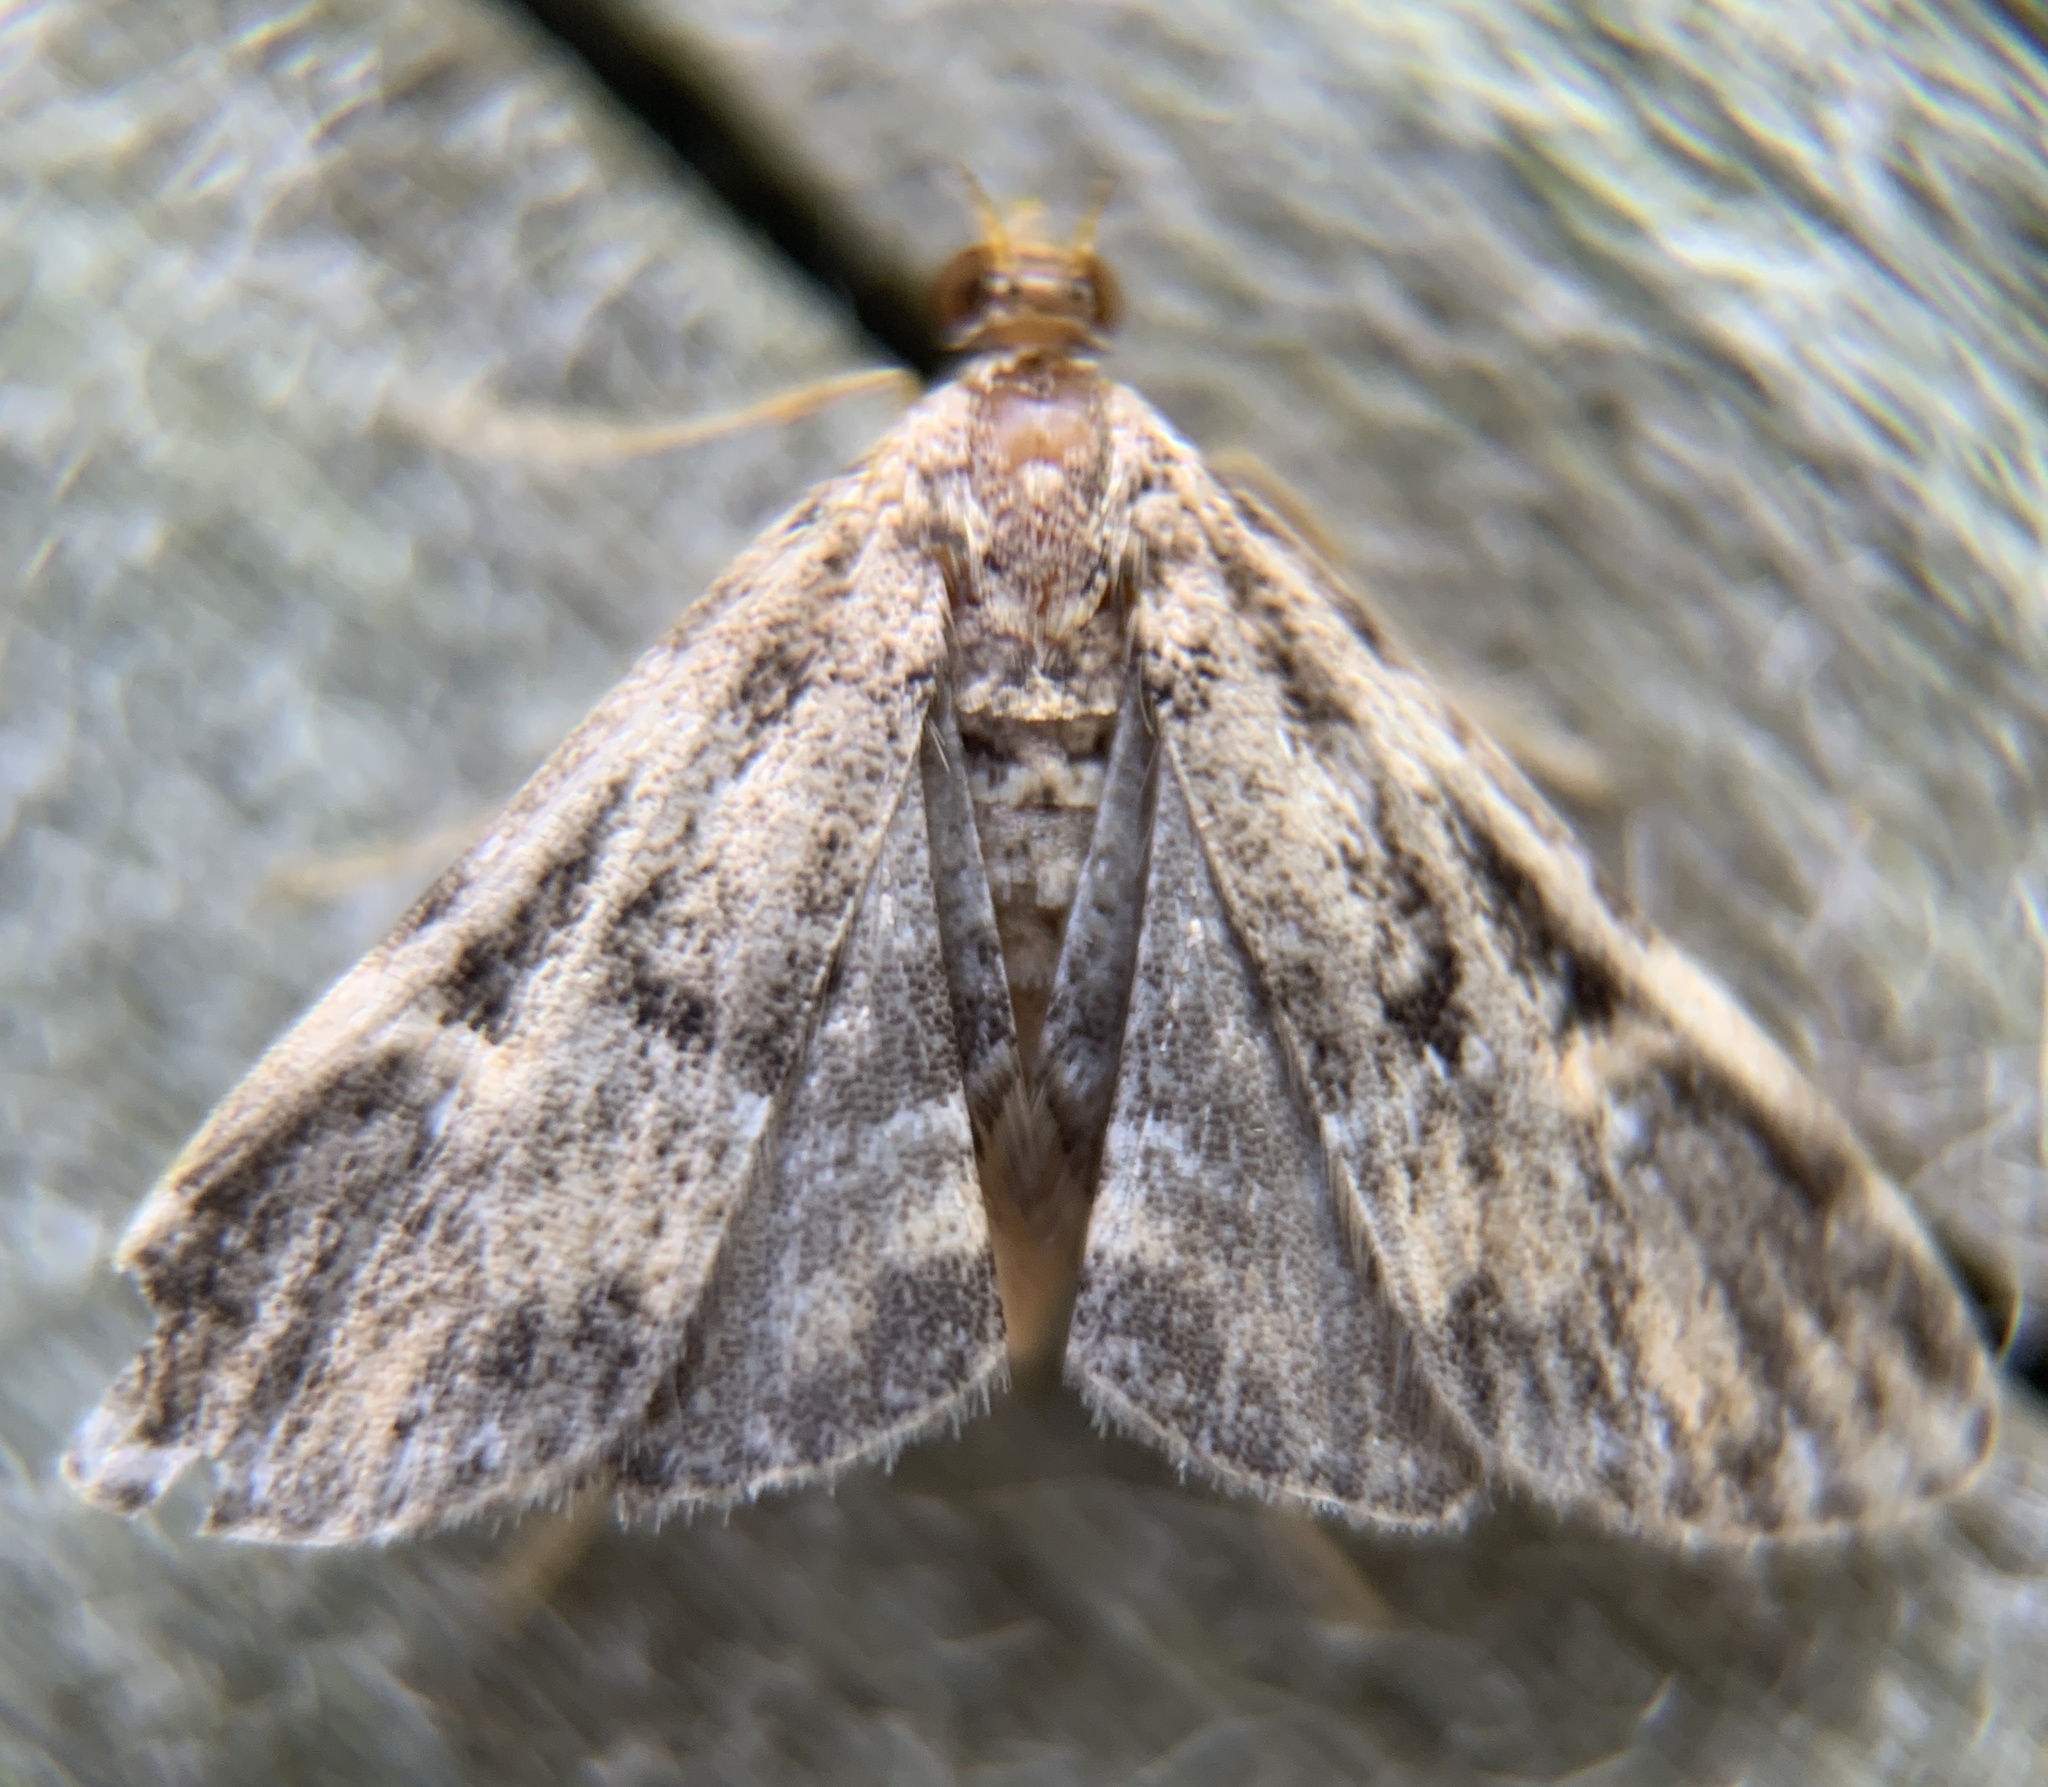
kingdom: Animalia
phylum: Arthropoda
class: Insecta
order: Lepidoptera
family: Crambidae
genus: Elophila
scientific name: Elophila obliteralis
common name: Waterlily leafcutter moth
